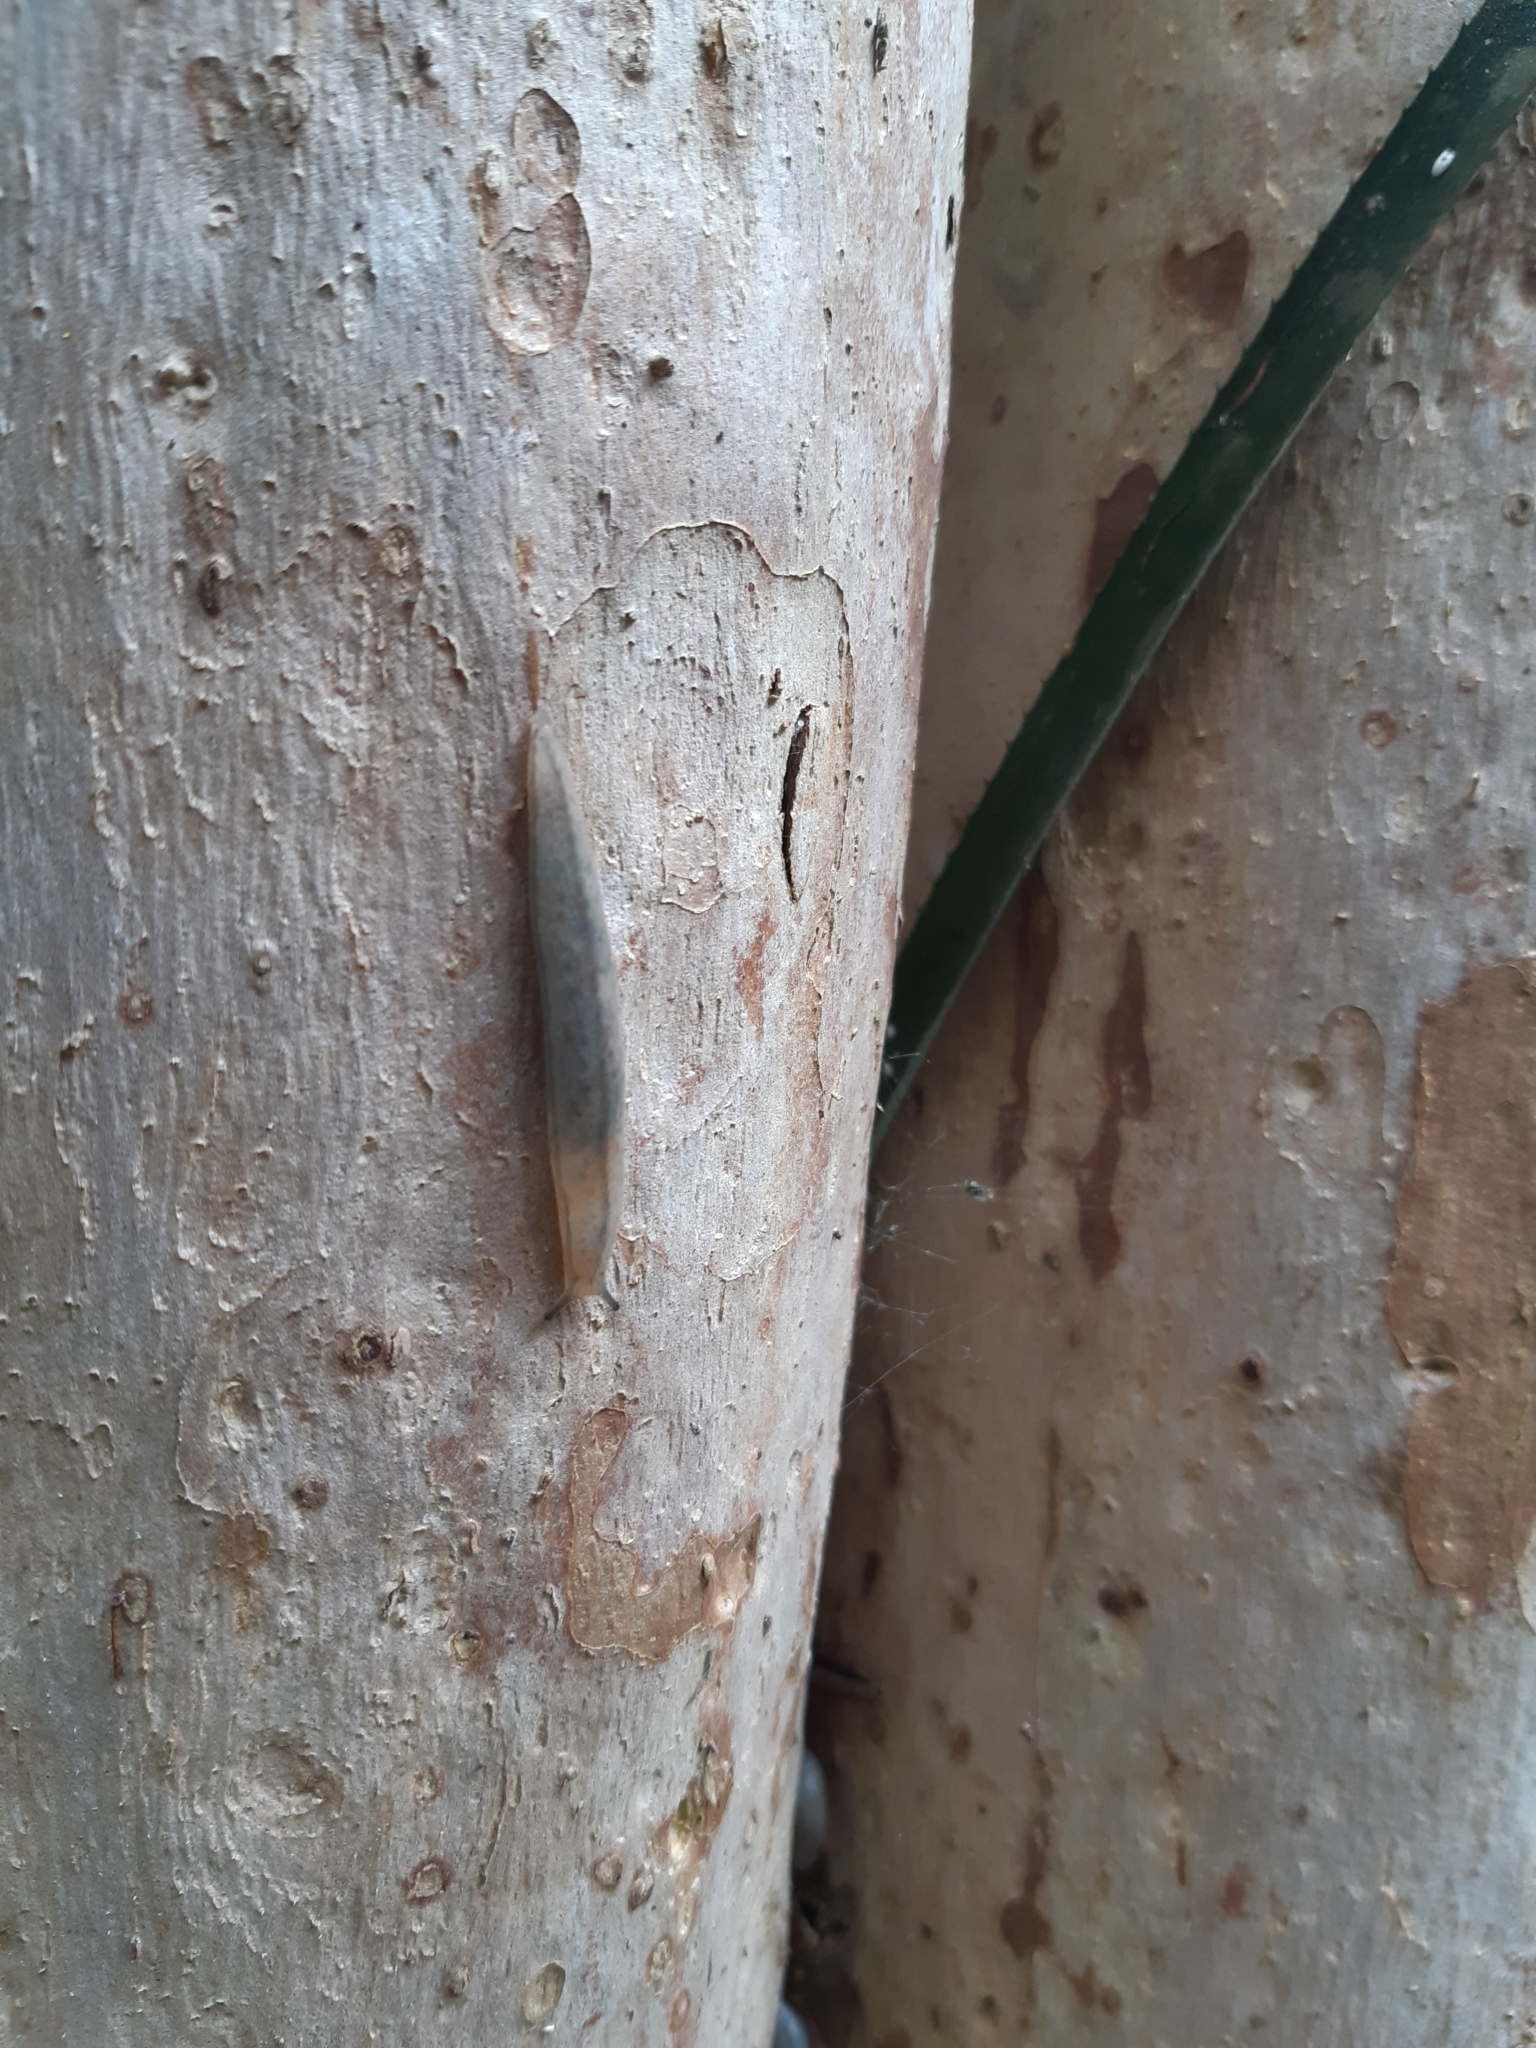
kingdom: Animalia
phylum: Mollusca
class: Gastropoda
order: Stylommatophora
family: Philomycidae
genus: Meghimatium
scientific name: Meghimatium pictum
